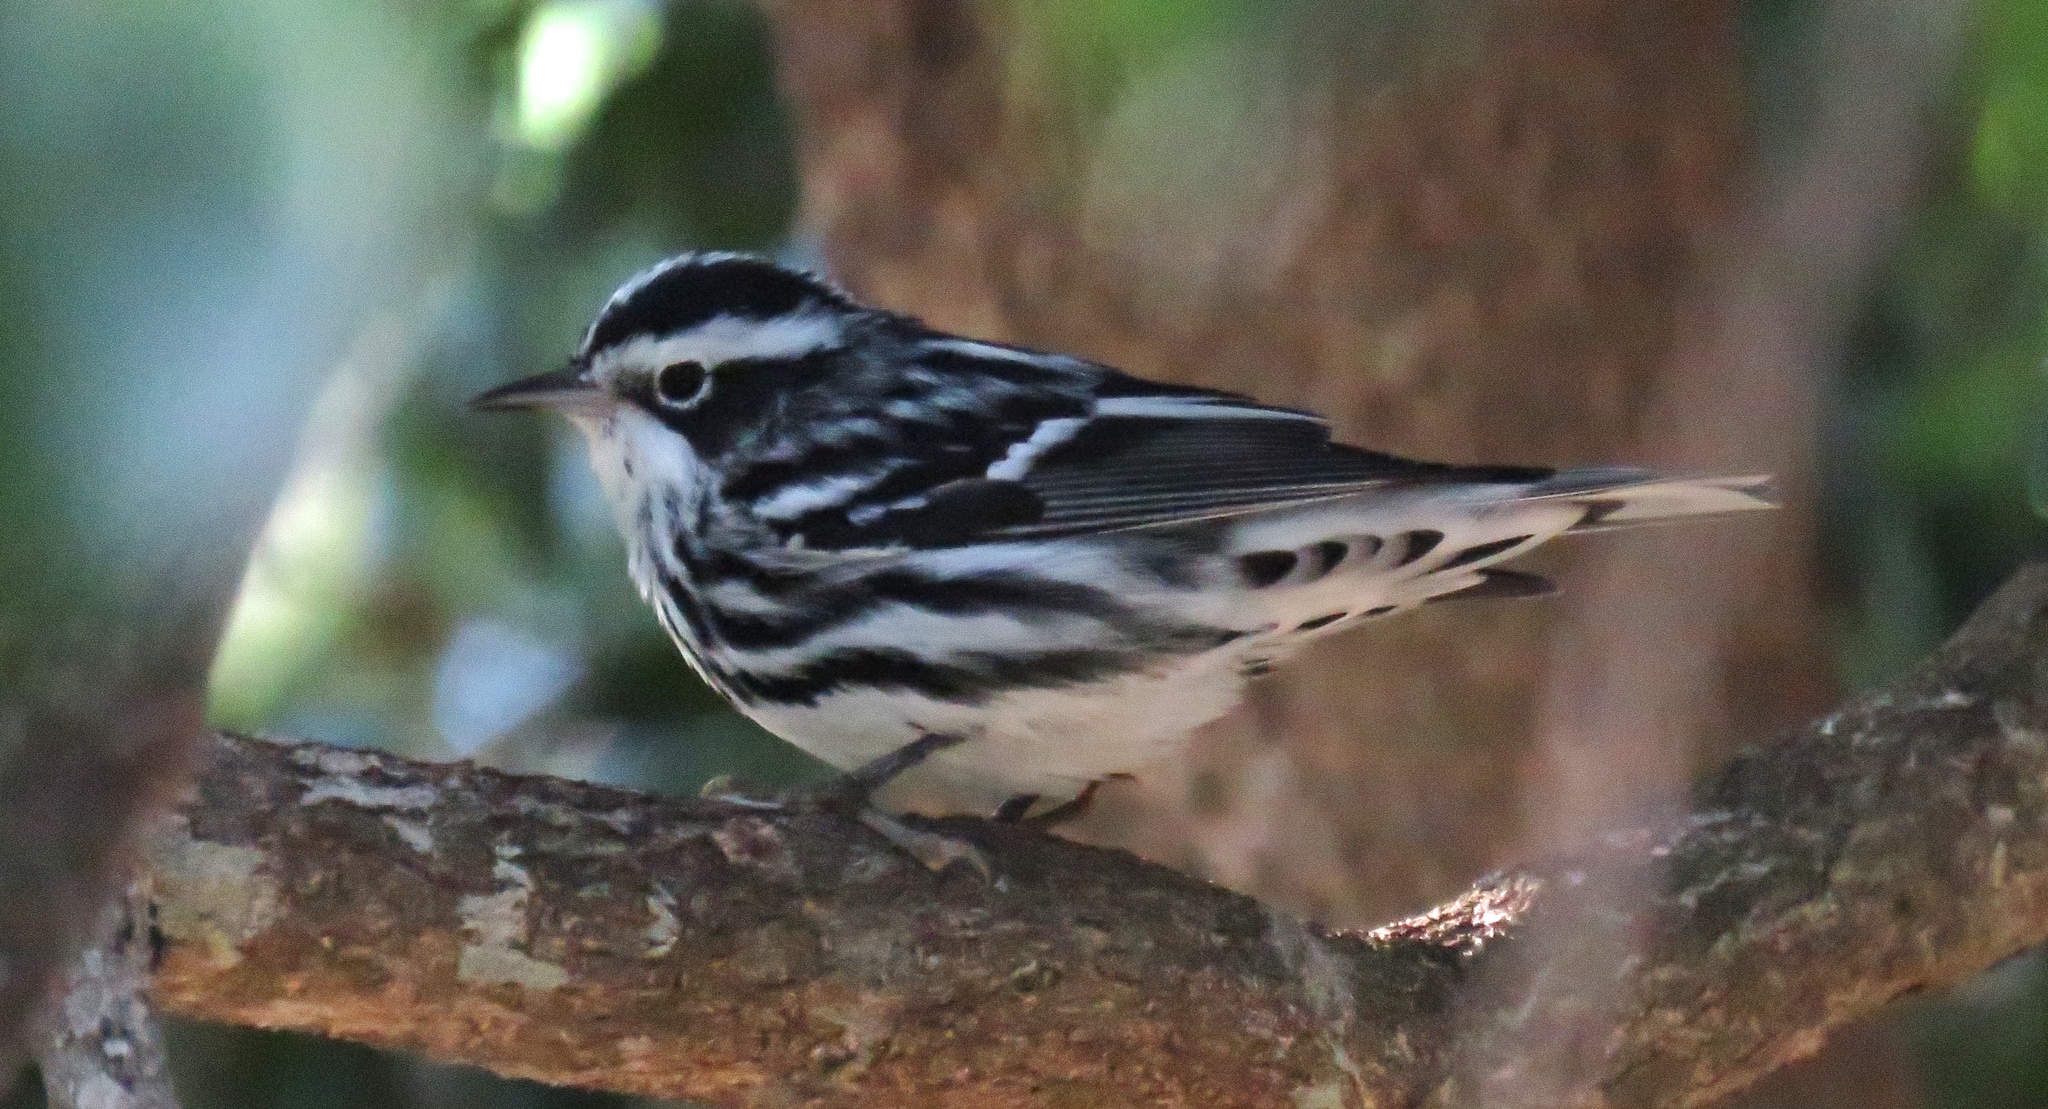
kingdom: Animalia
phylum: Chordata
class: Aves
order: Passeriformes
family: Parulidae
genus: Mniotilta
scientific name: Mniotilta varia
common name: Black-and-white warbler
